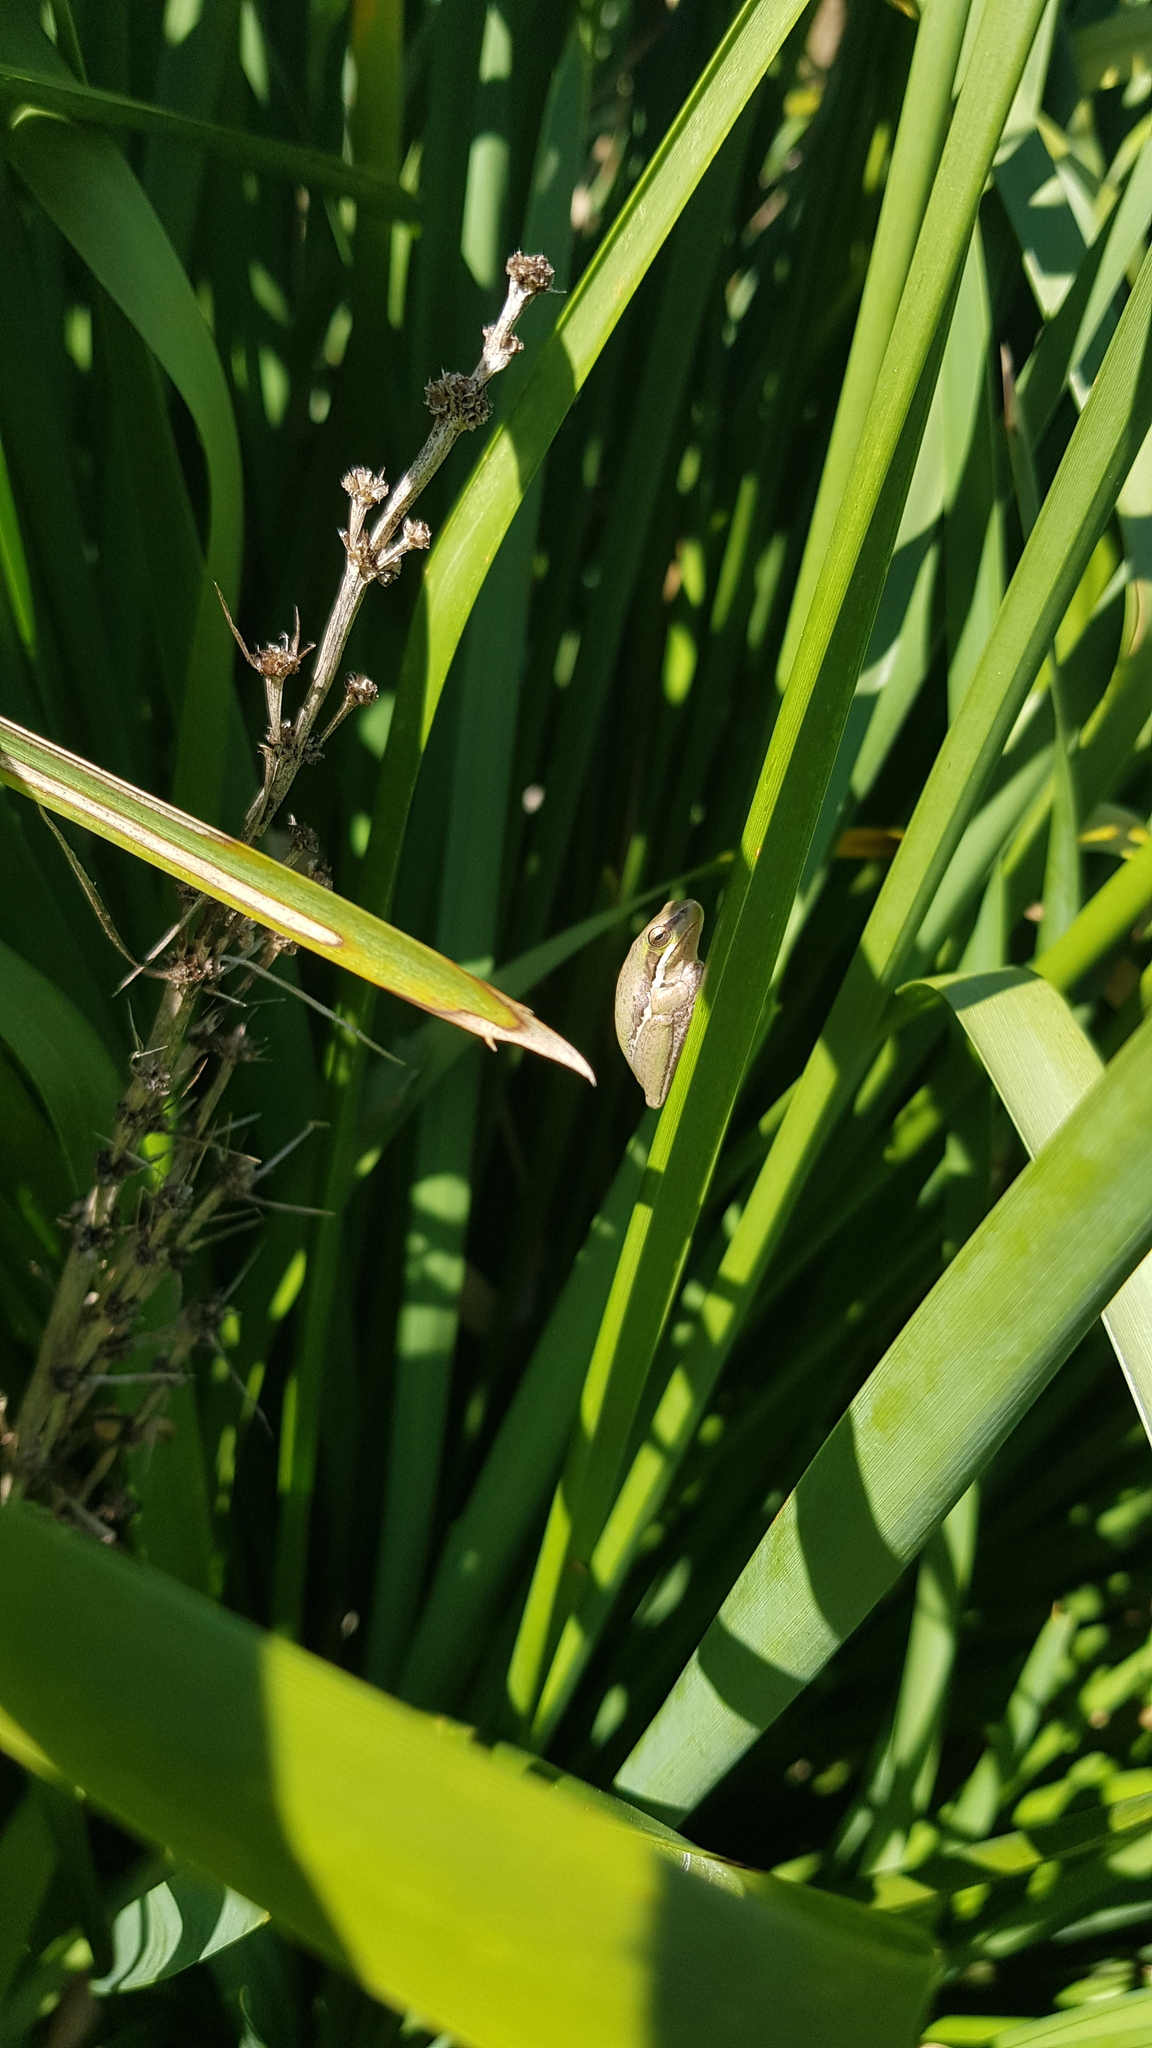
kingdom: Animalia
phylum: Chordata
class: Amphibia
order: Anura
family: Pelodryadidae
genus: Litoria
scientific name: Litoria fallax
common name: Eastern dwarf treefrog
